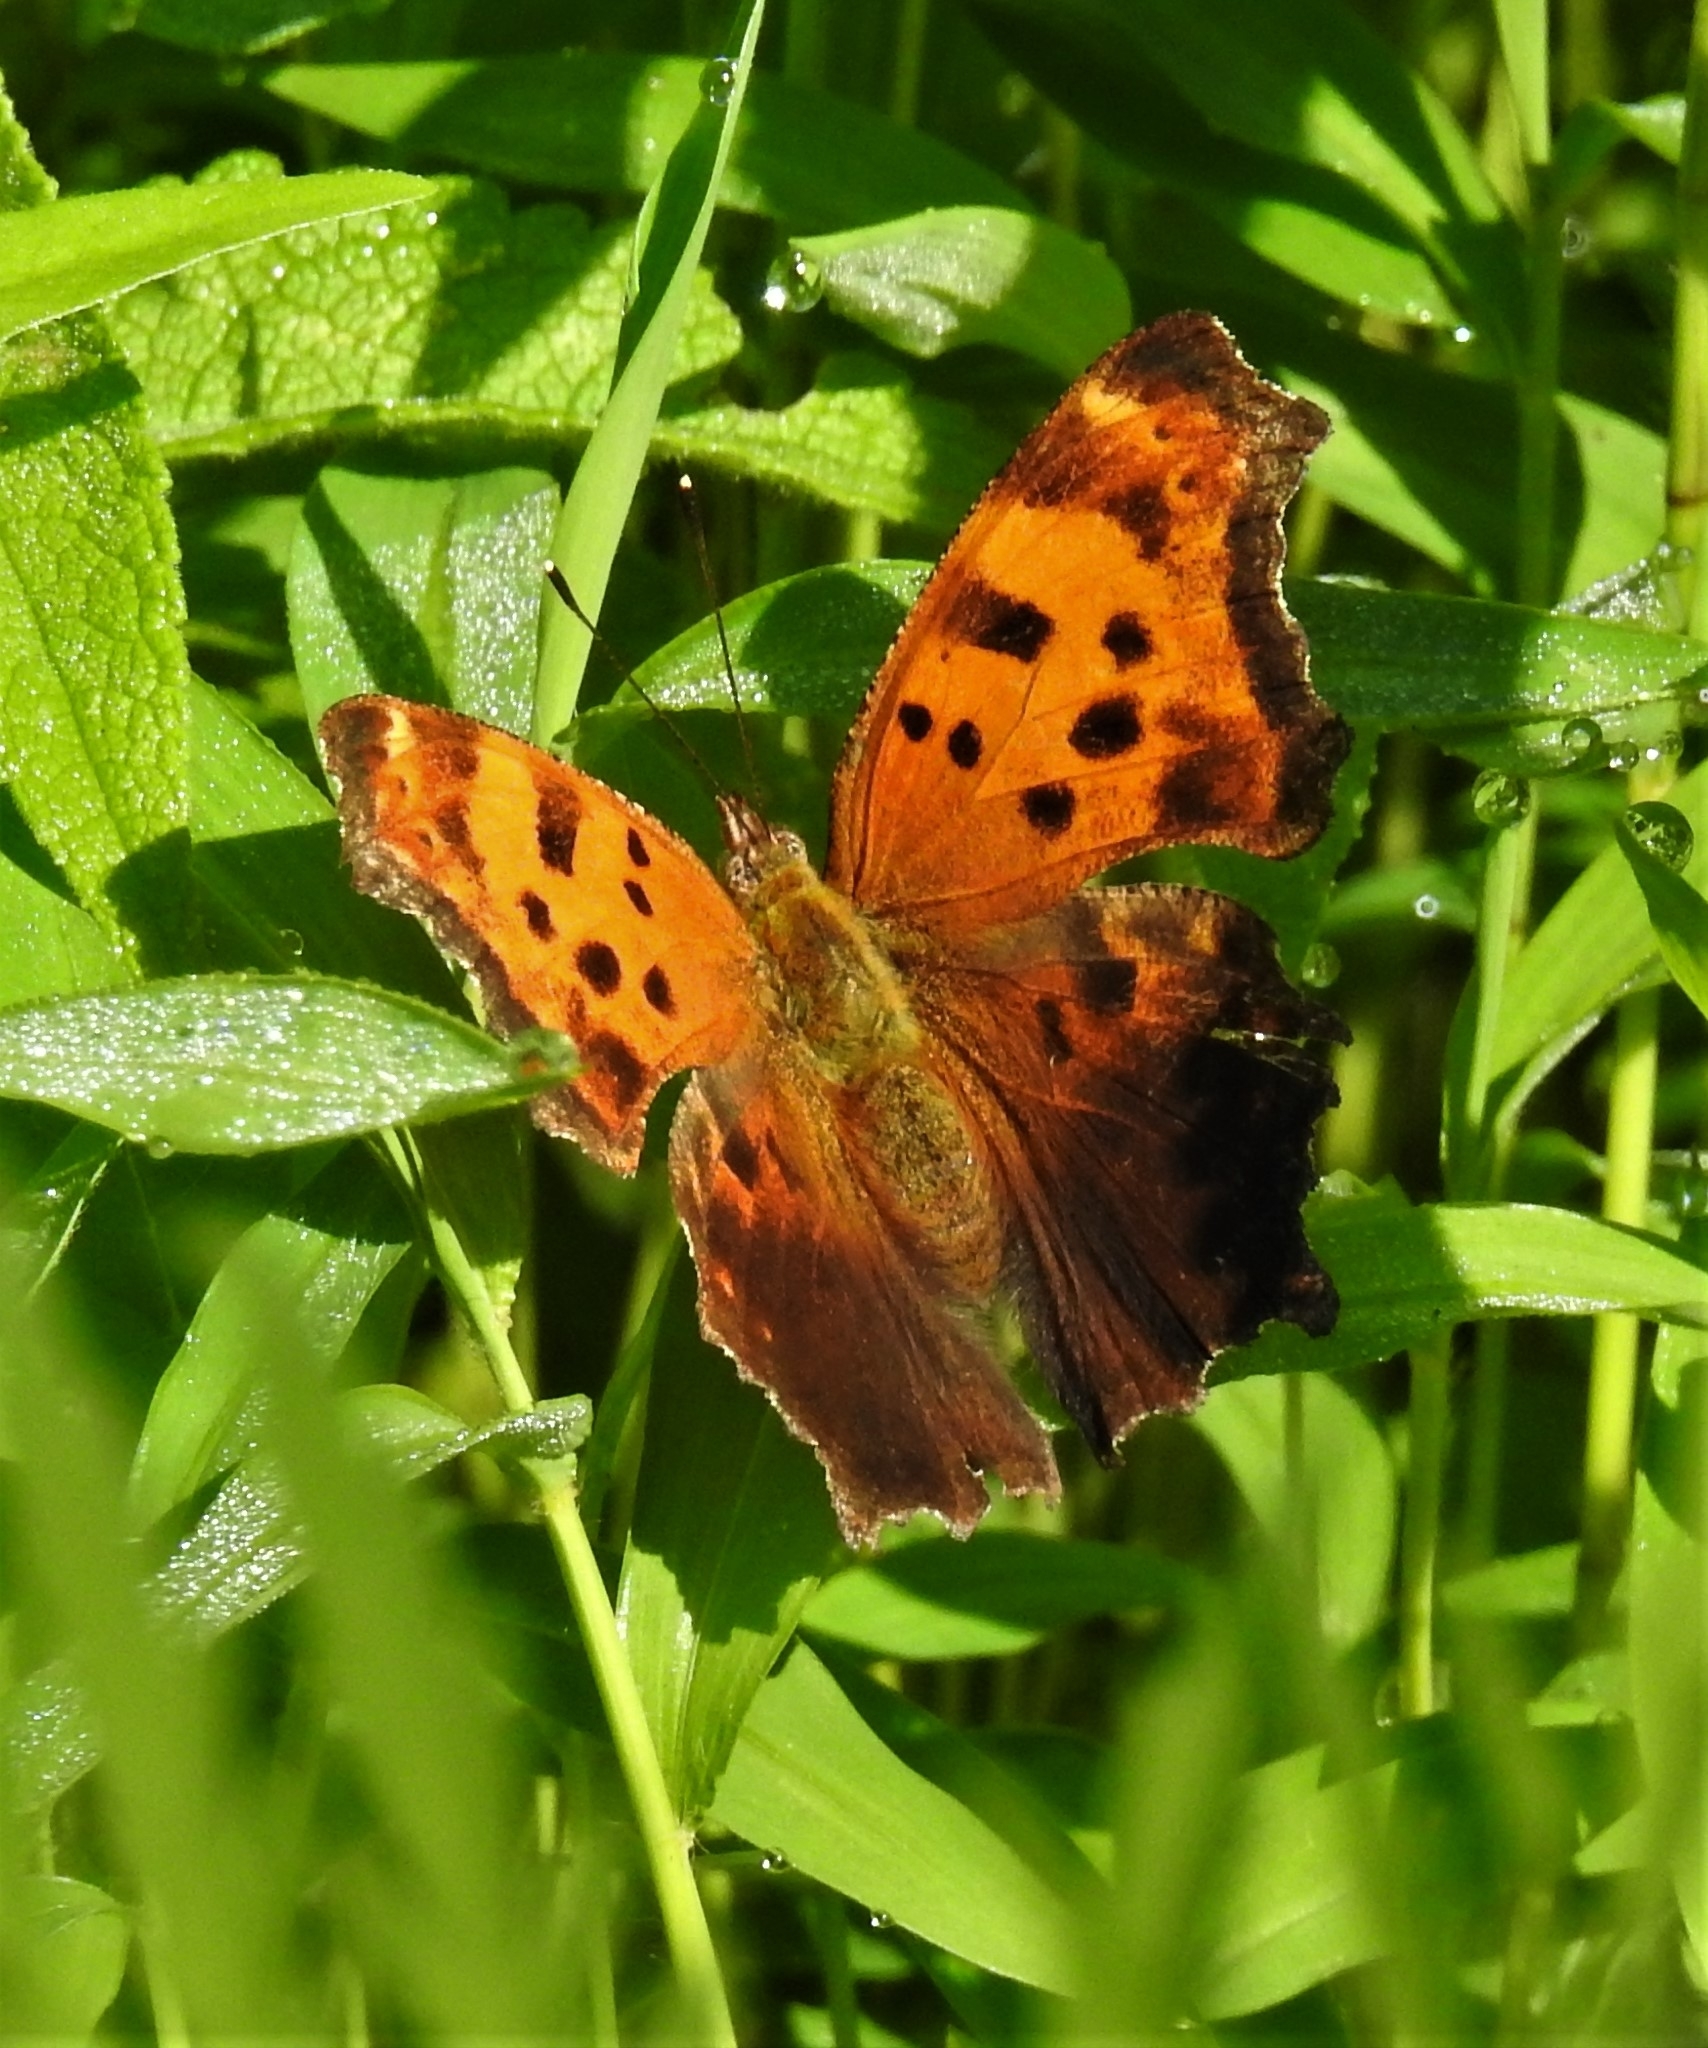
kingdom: Animalia
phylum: Arthropoda
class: Insecta
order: Lepidoptera
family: Nymphalidae
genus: Polygonia
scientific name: Polygonia comma
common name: Eastern comma
